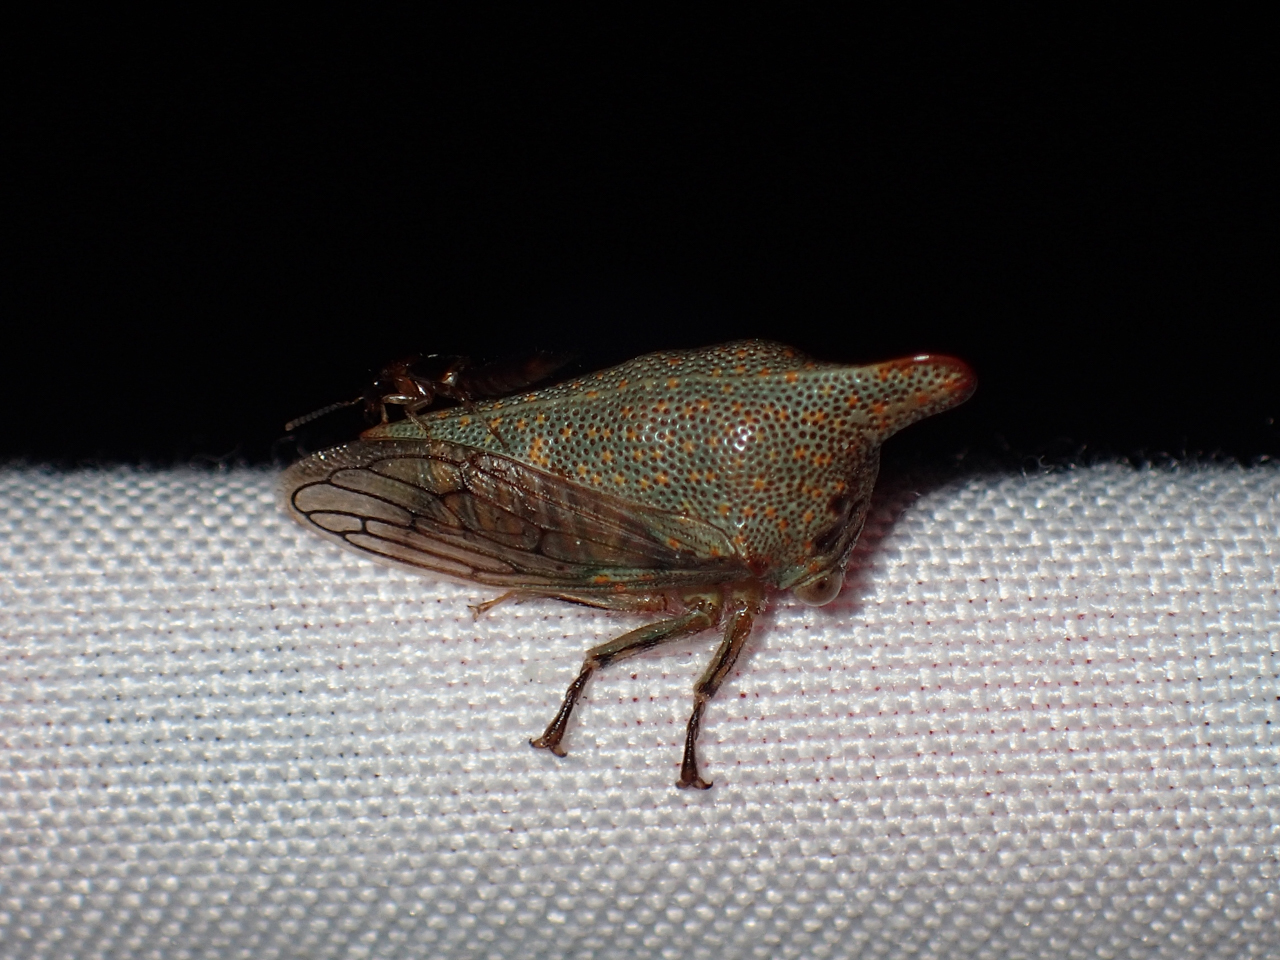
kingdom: Animalia
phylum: Arthropoda
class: Insecta
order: Hemiptera
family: Membracidae
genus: Platycotis
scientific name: Platycotis vittatus
